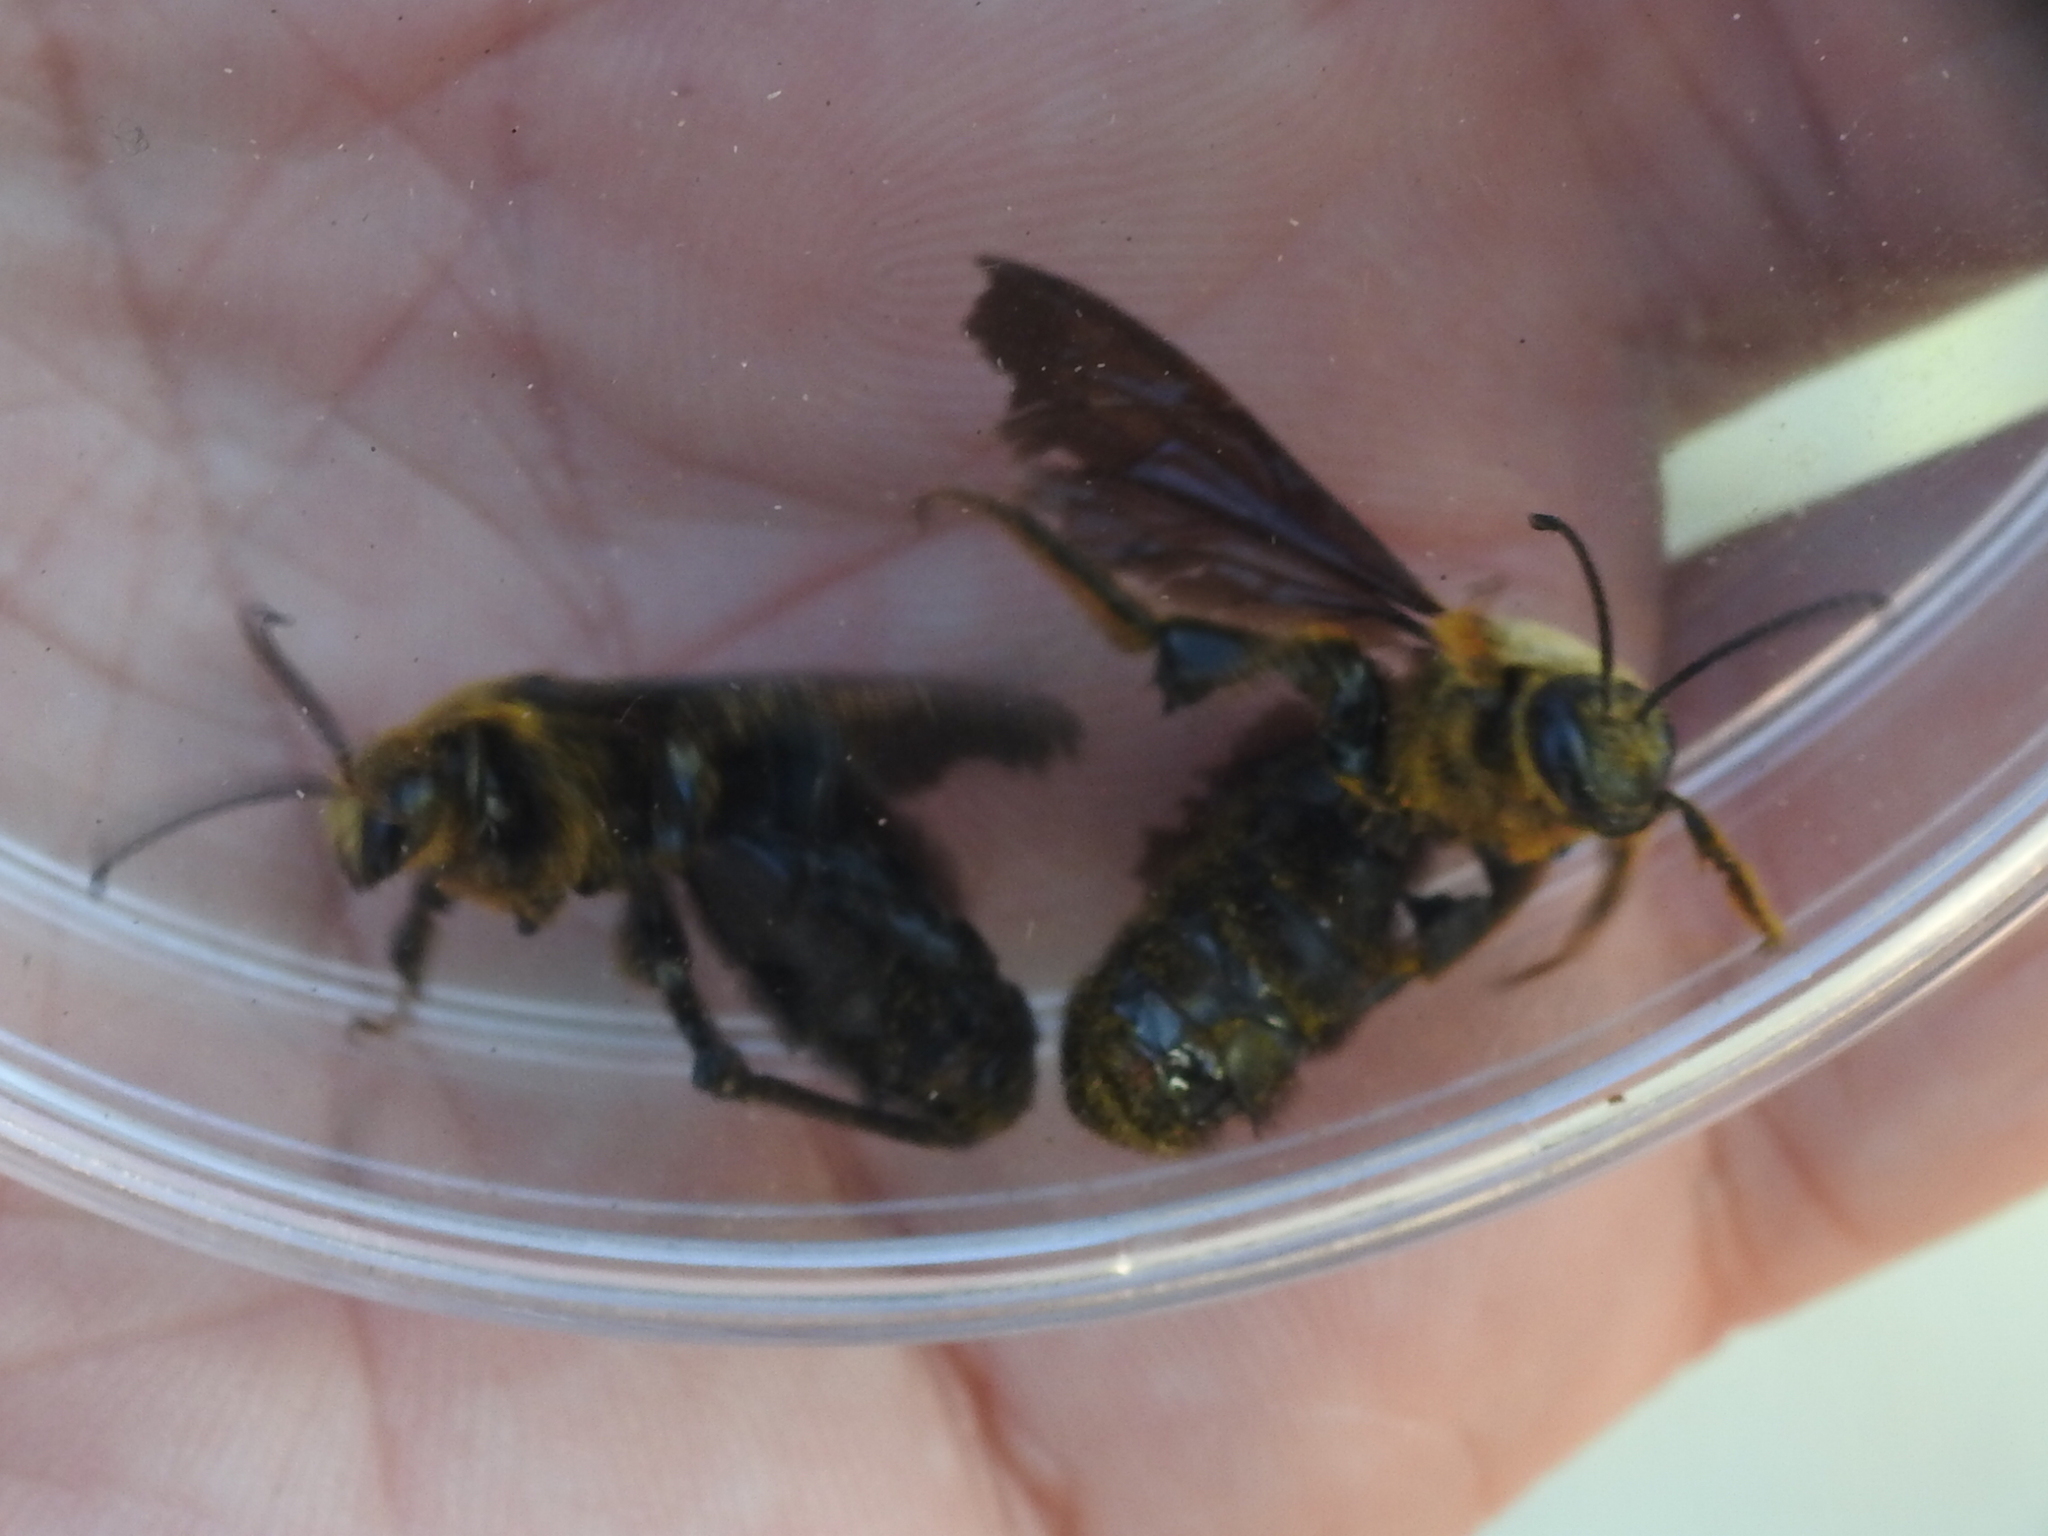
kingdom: Animalia
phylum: Arthropoda
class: Insecta
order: Hymenoptera
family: Halictidae
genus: Dieunomia
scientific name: Dieunomia heteropoda
